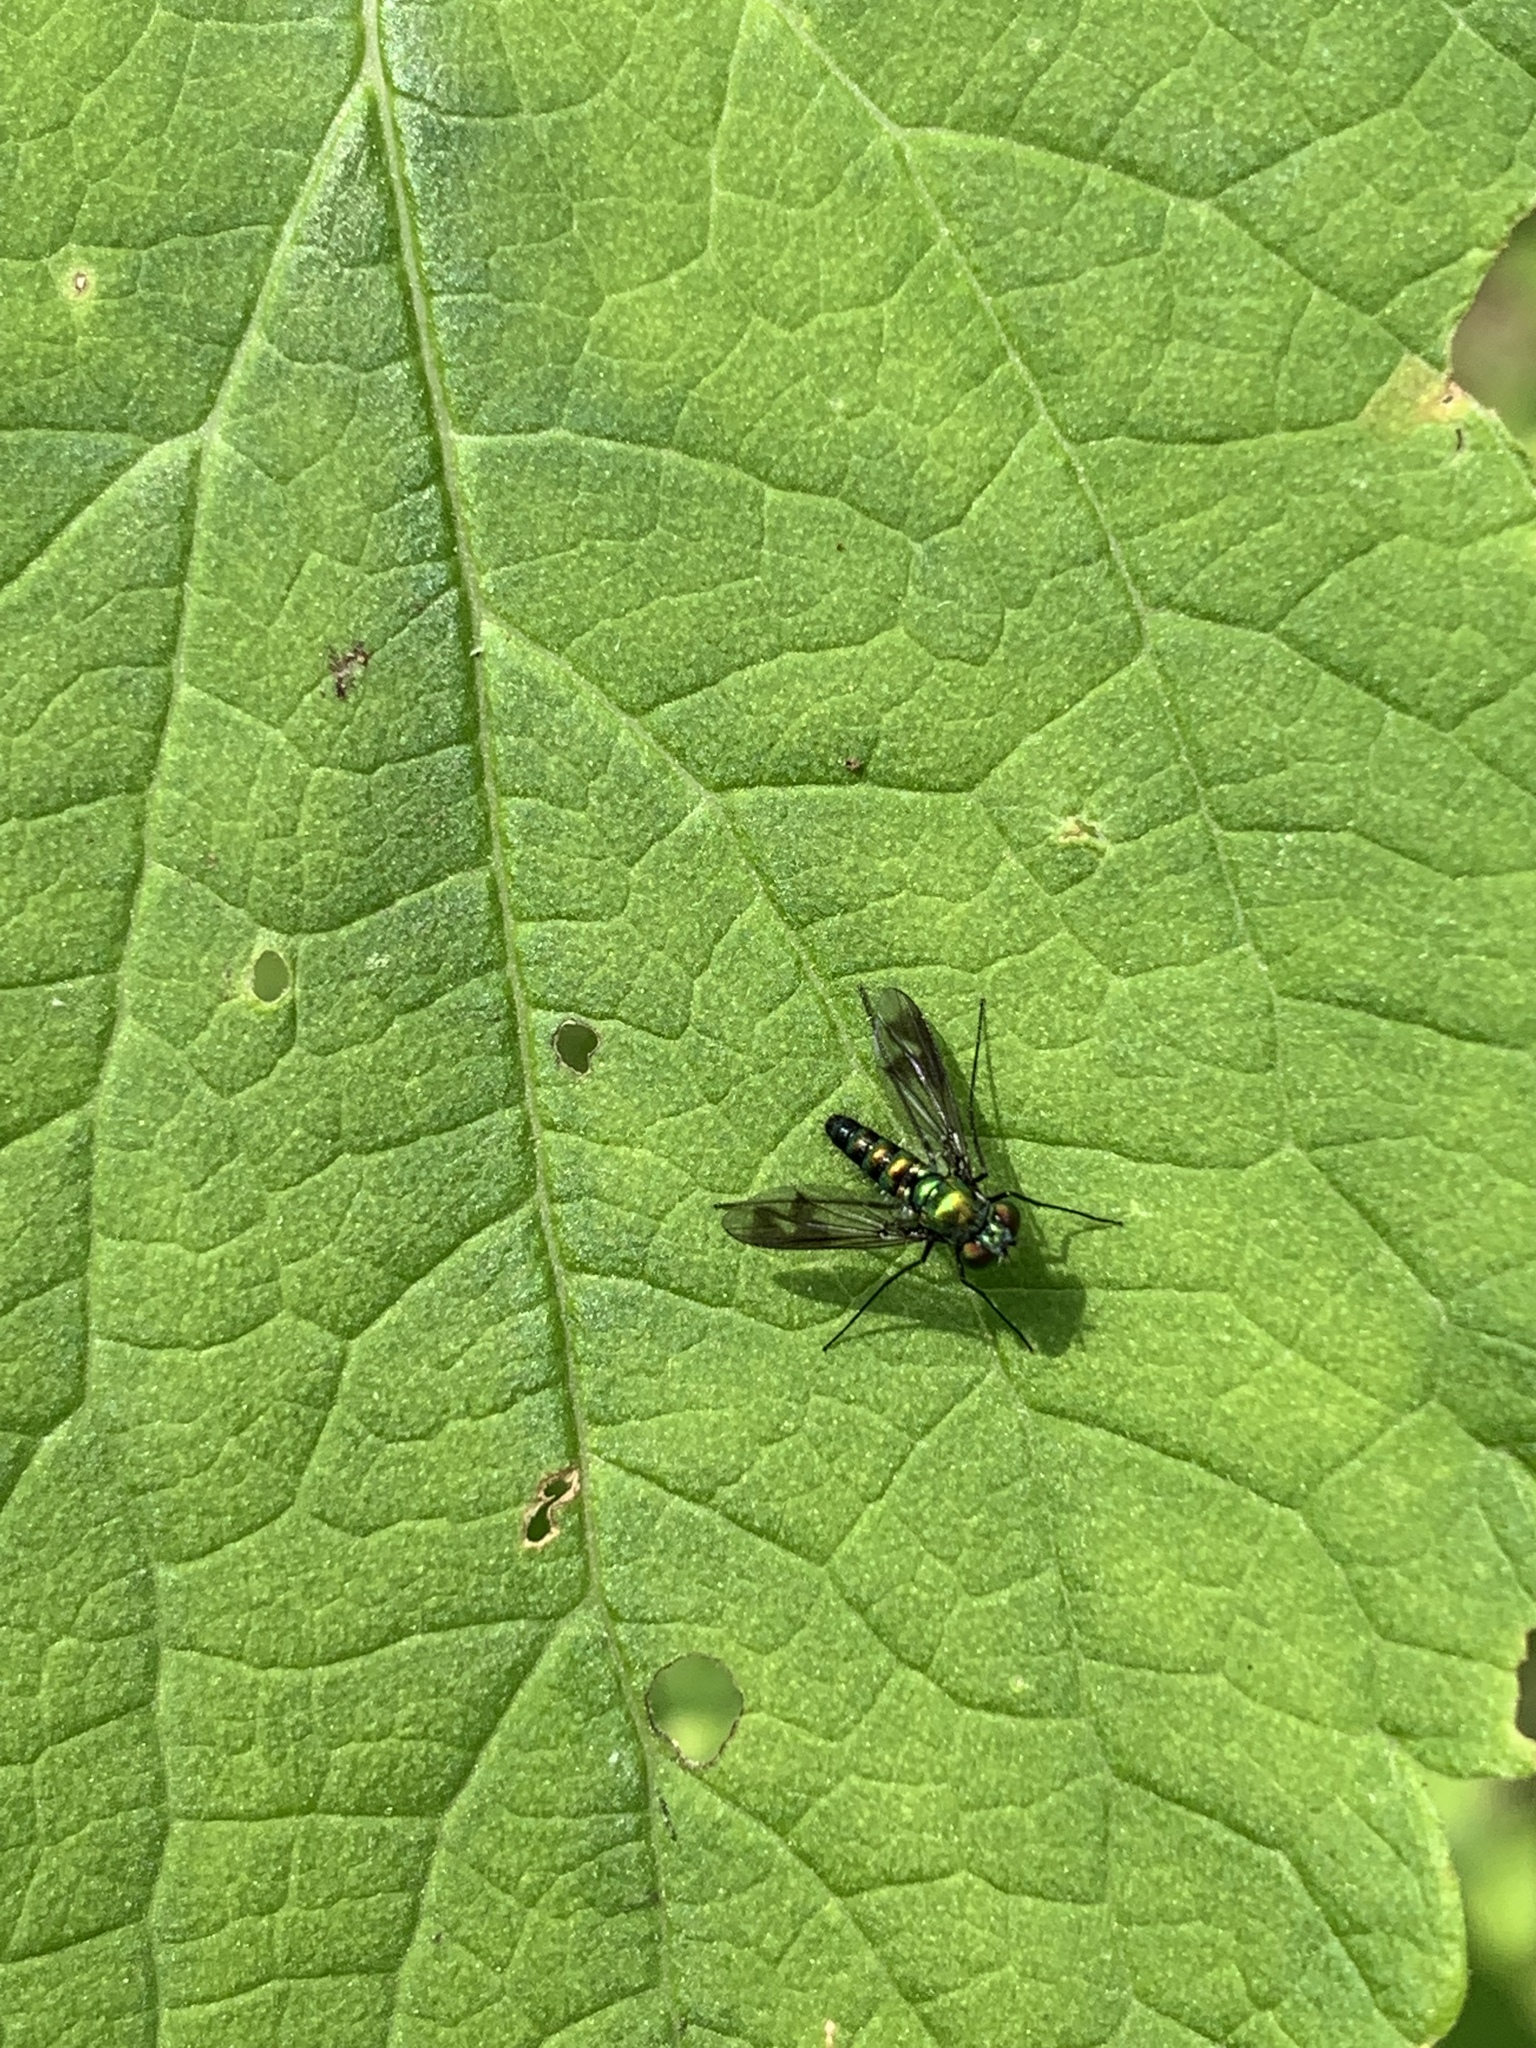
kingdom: Animalia
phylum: Arthropoda
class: Insecta
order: Diptera
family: Dolichopodidae
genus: Condylostylus
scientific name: Condylostylus patibulatus
